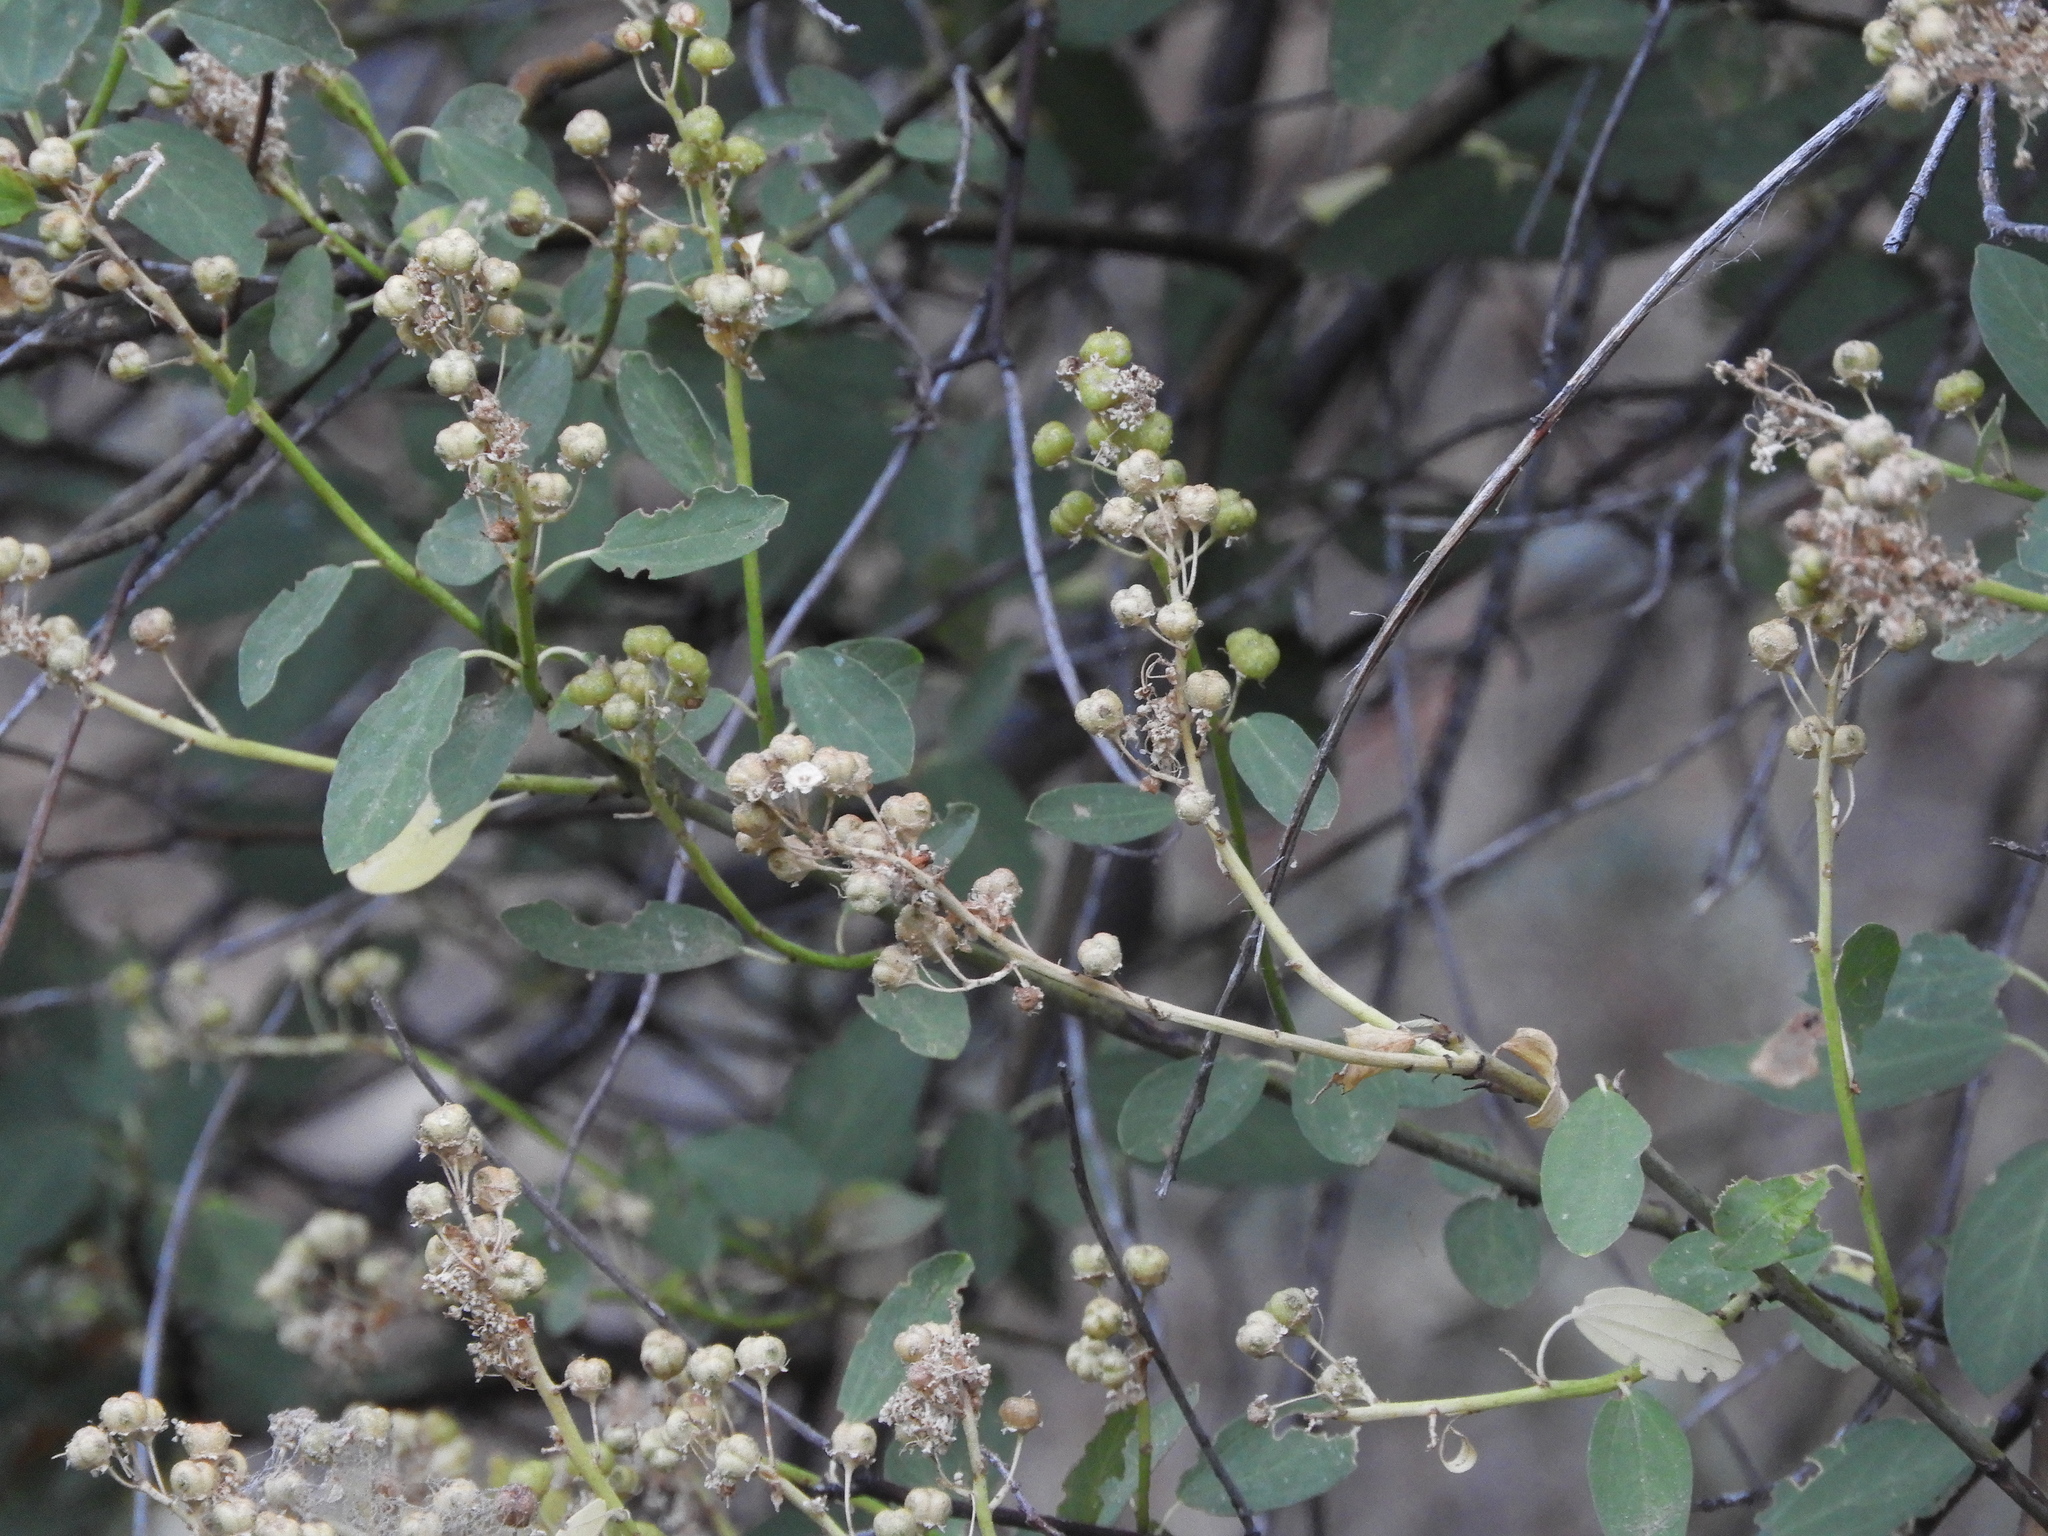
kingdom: Plantae
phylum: Tracheophyta
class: Magnoliopsida
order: Rosales
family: Rhamnaceae
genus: Ceanothus
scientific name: Ceanothus integerrimus
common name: Deerbrush ceanothus
